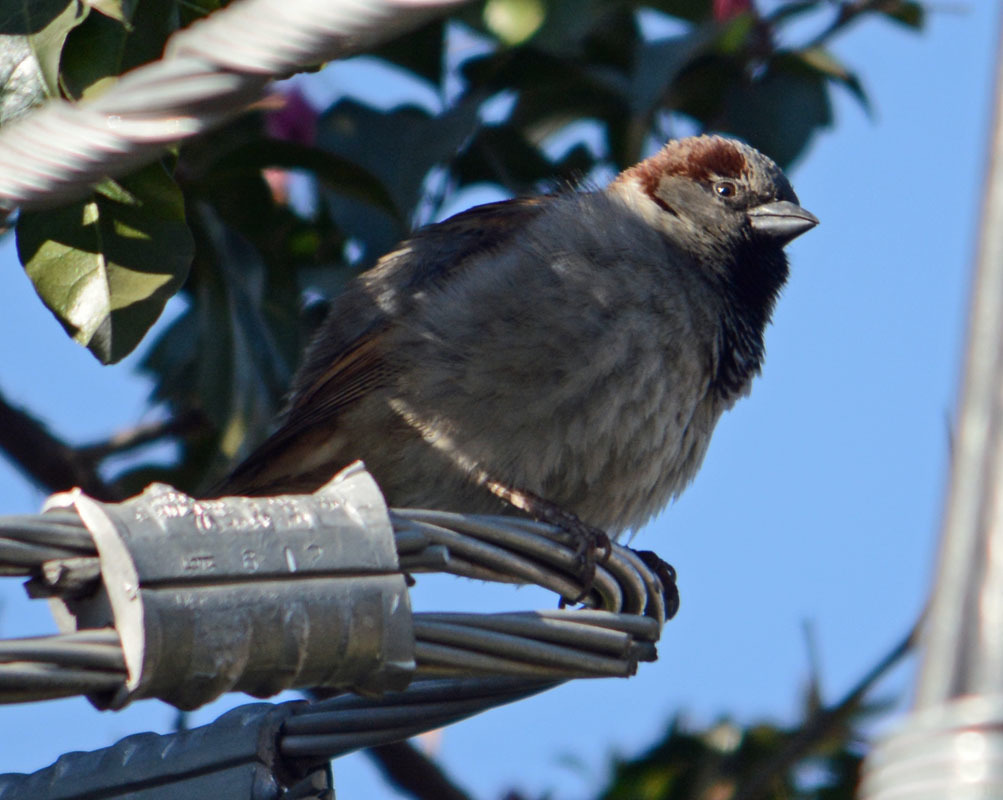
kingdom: Animalia
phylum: Chordata
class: Aves
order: Passeriformes
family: Passeridae
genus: Passer
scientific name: Passer domesticus
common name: House sparrow
